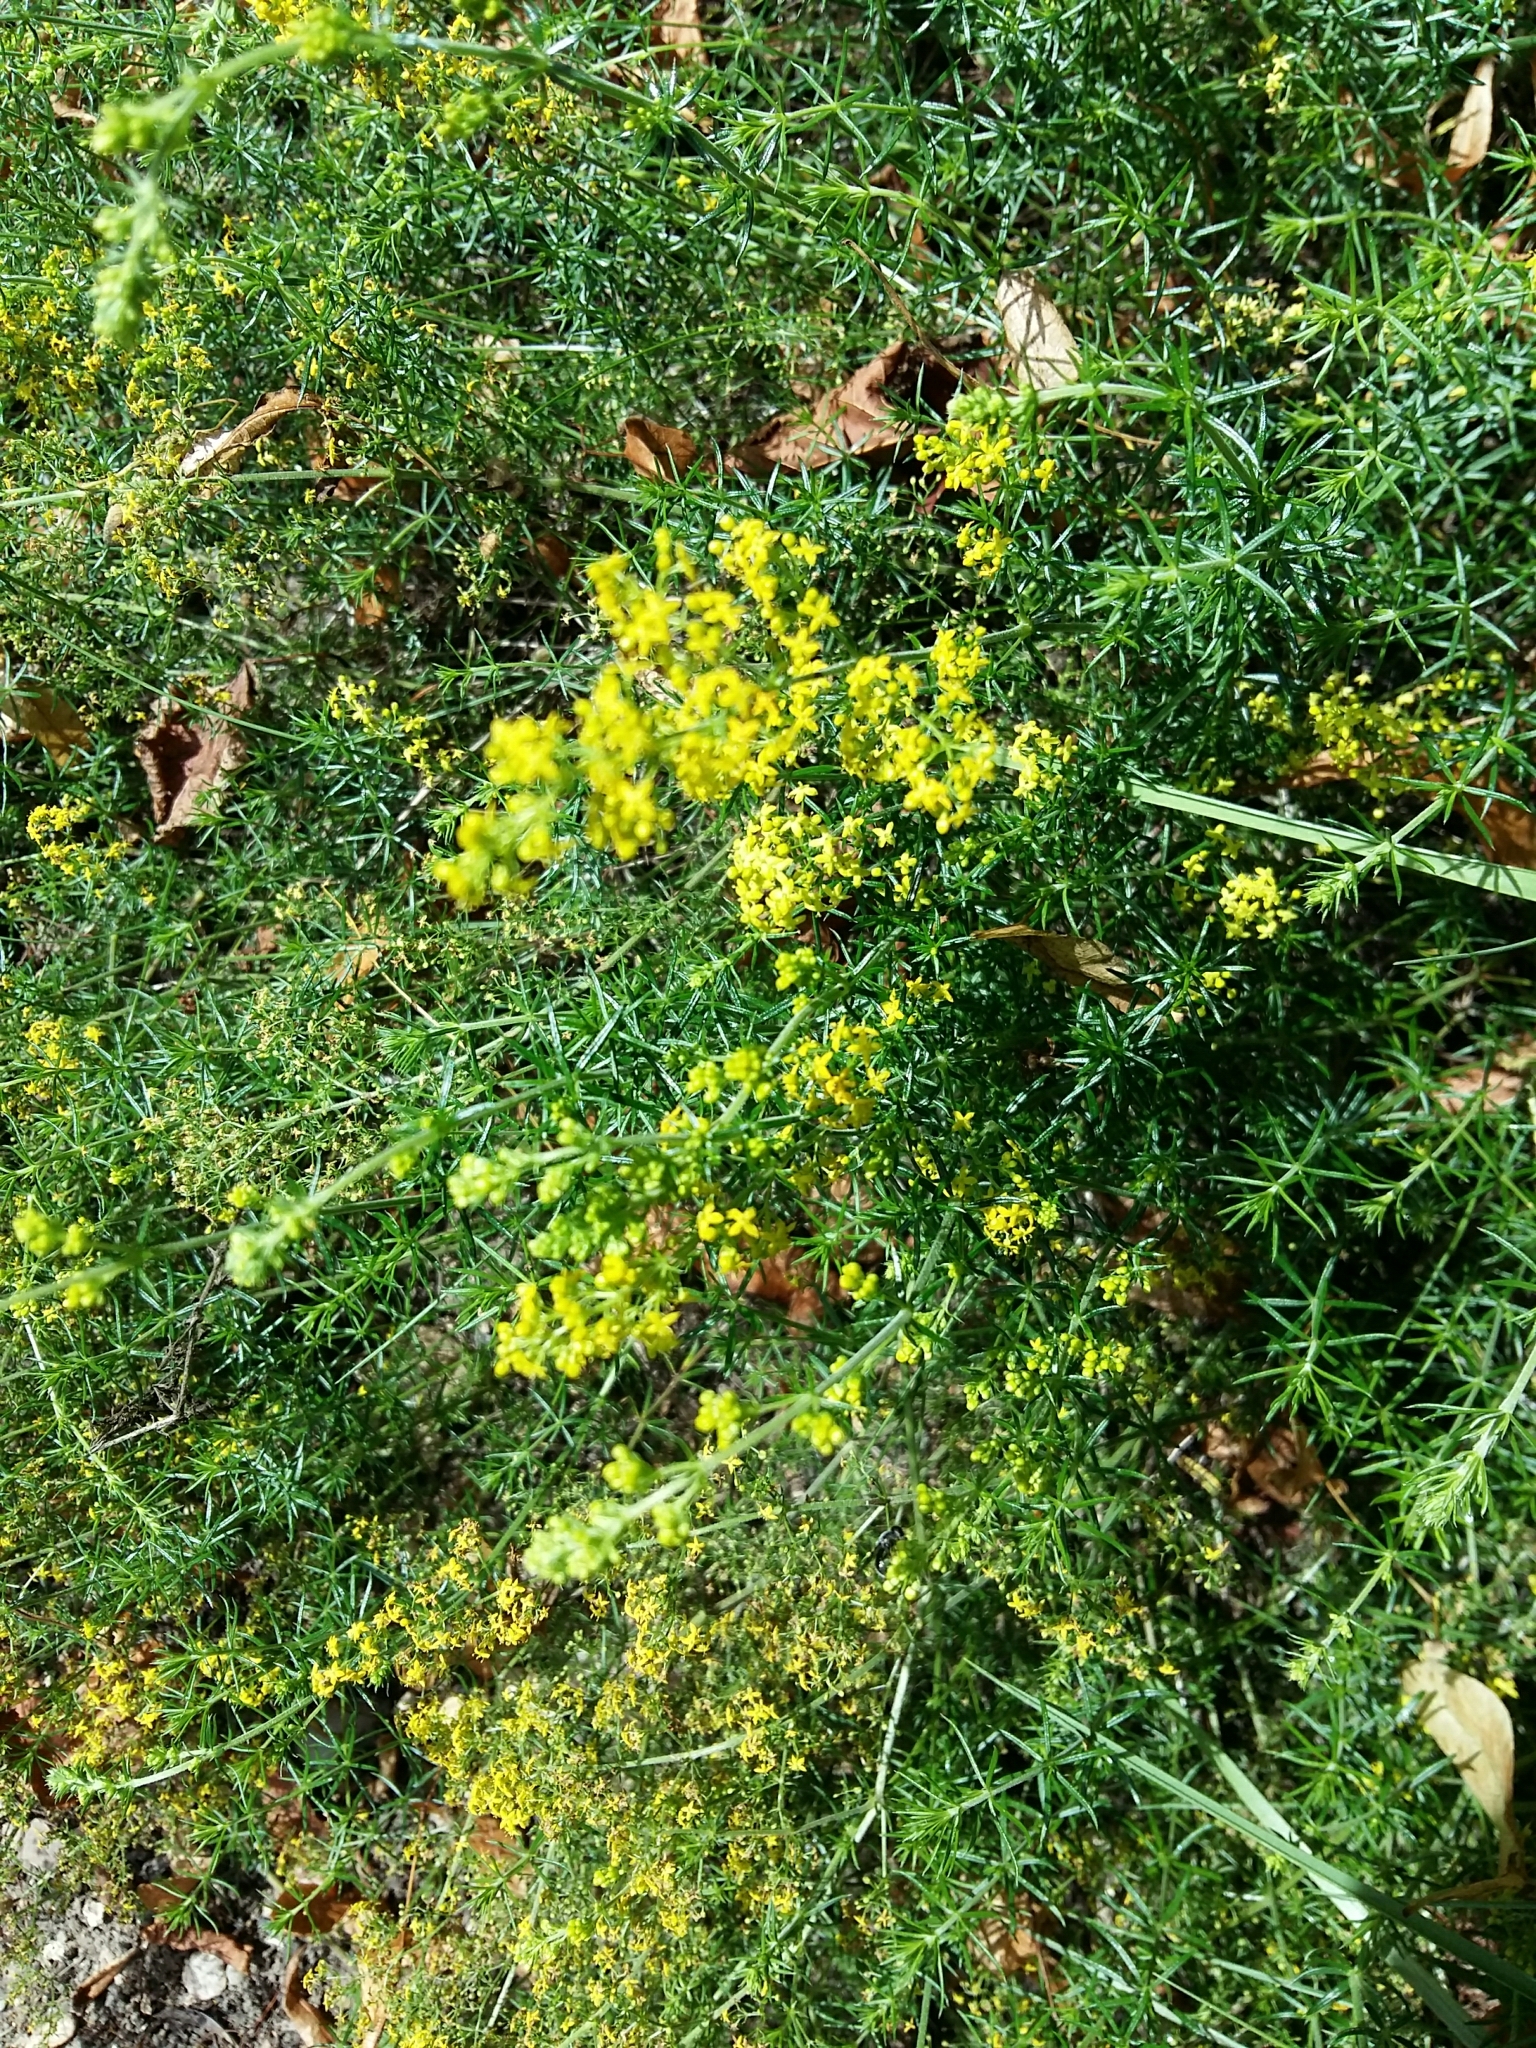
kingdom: Plantae
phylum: Tracheophyta
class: Magnoliopsida
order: Gentianales
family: Rubiaceae
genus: Galium
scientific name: Galium verum
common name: Lady's bedstraw
